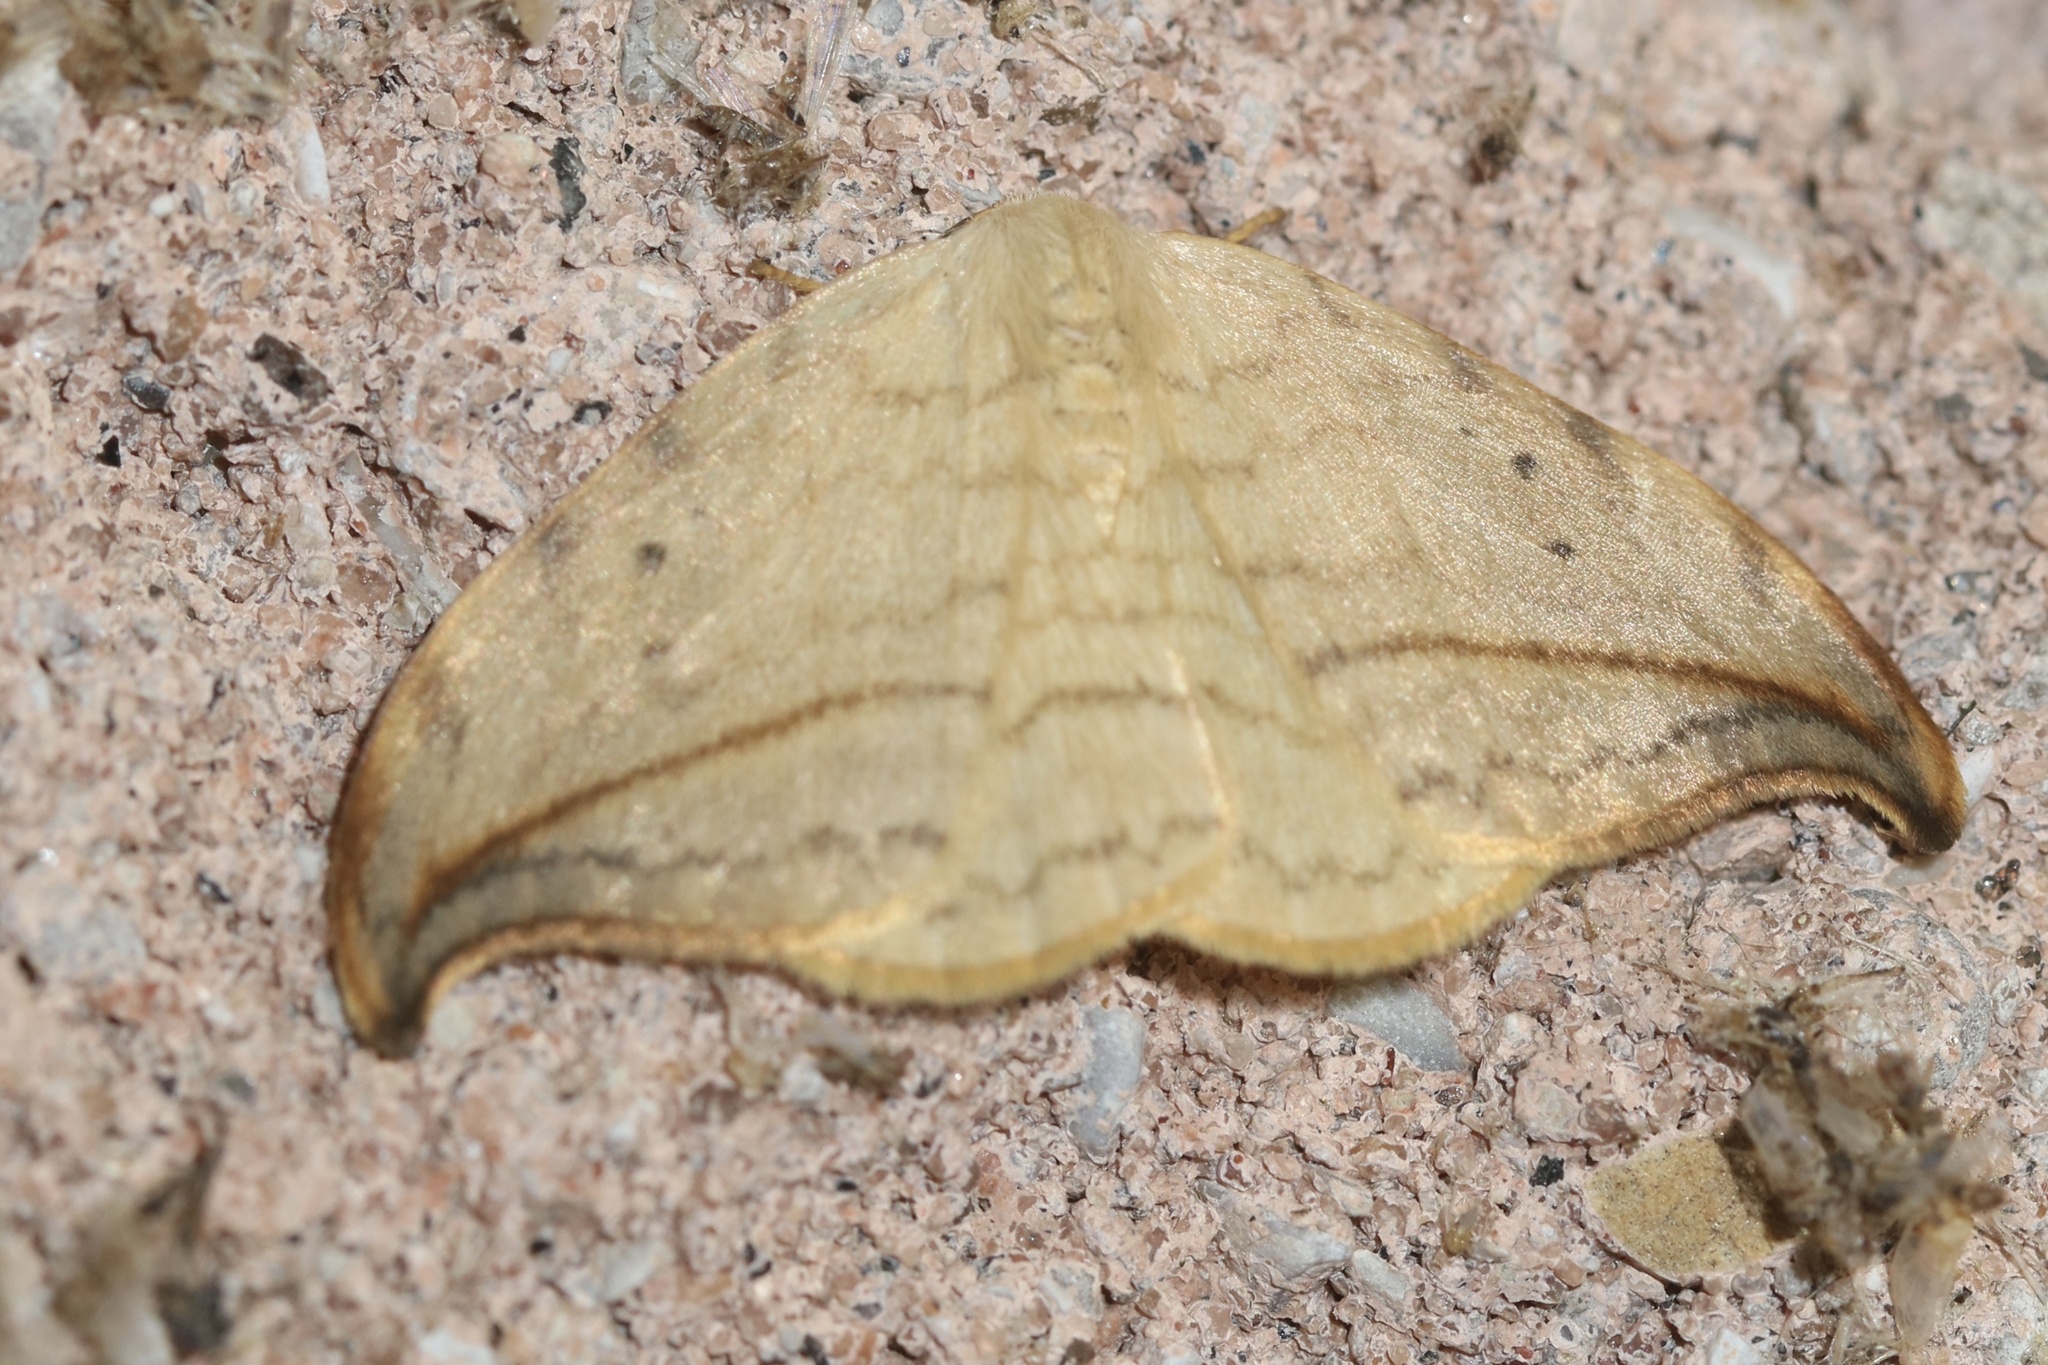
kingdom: Animalia
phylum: Arthropoda
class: Insecta
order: Lepidoptera
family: Drepanidae
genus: Drepana
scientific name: Drepana arcuata
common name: Arched hooktip moth
